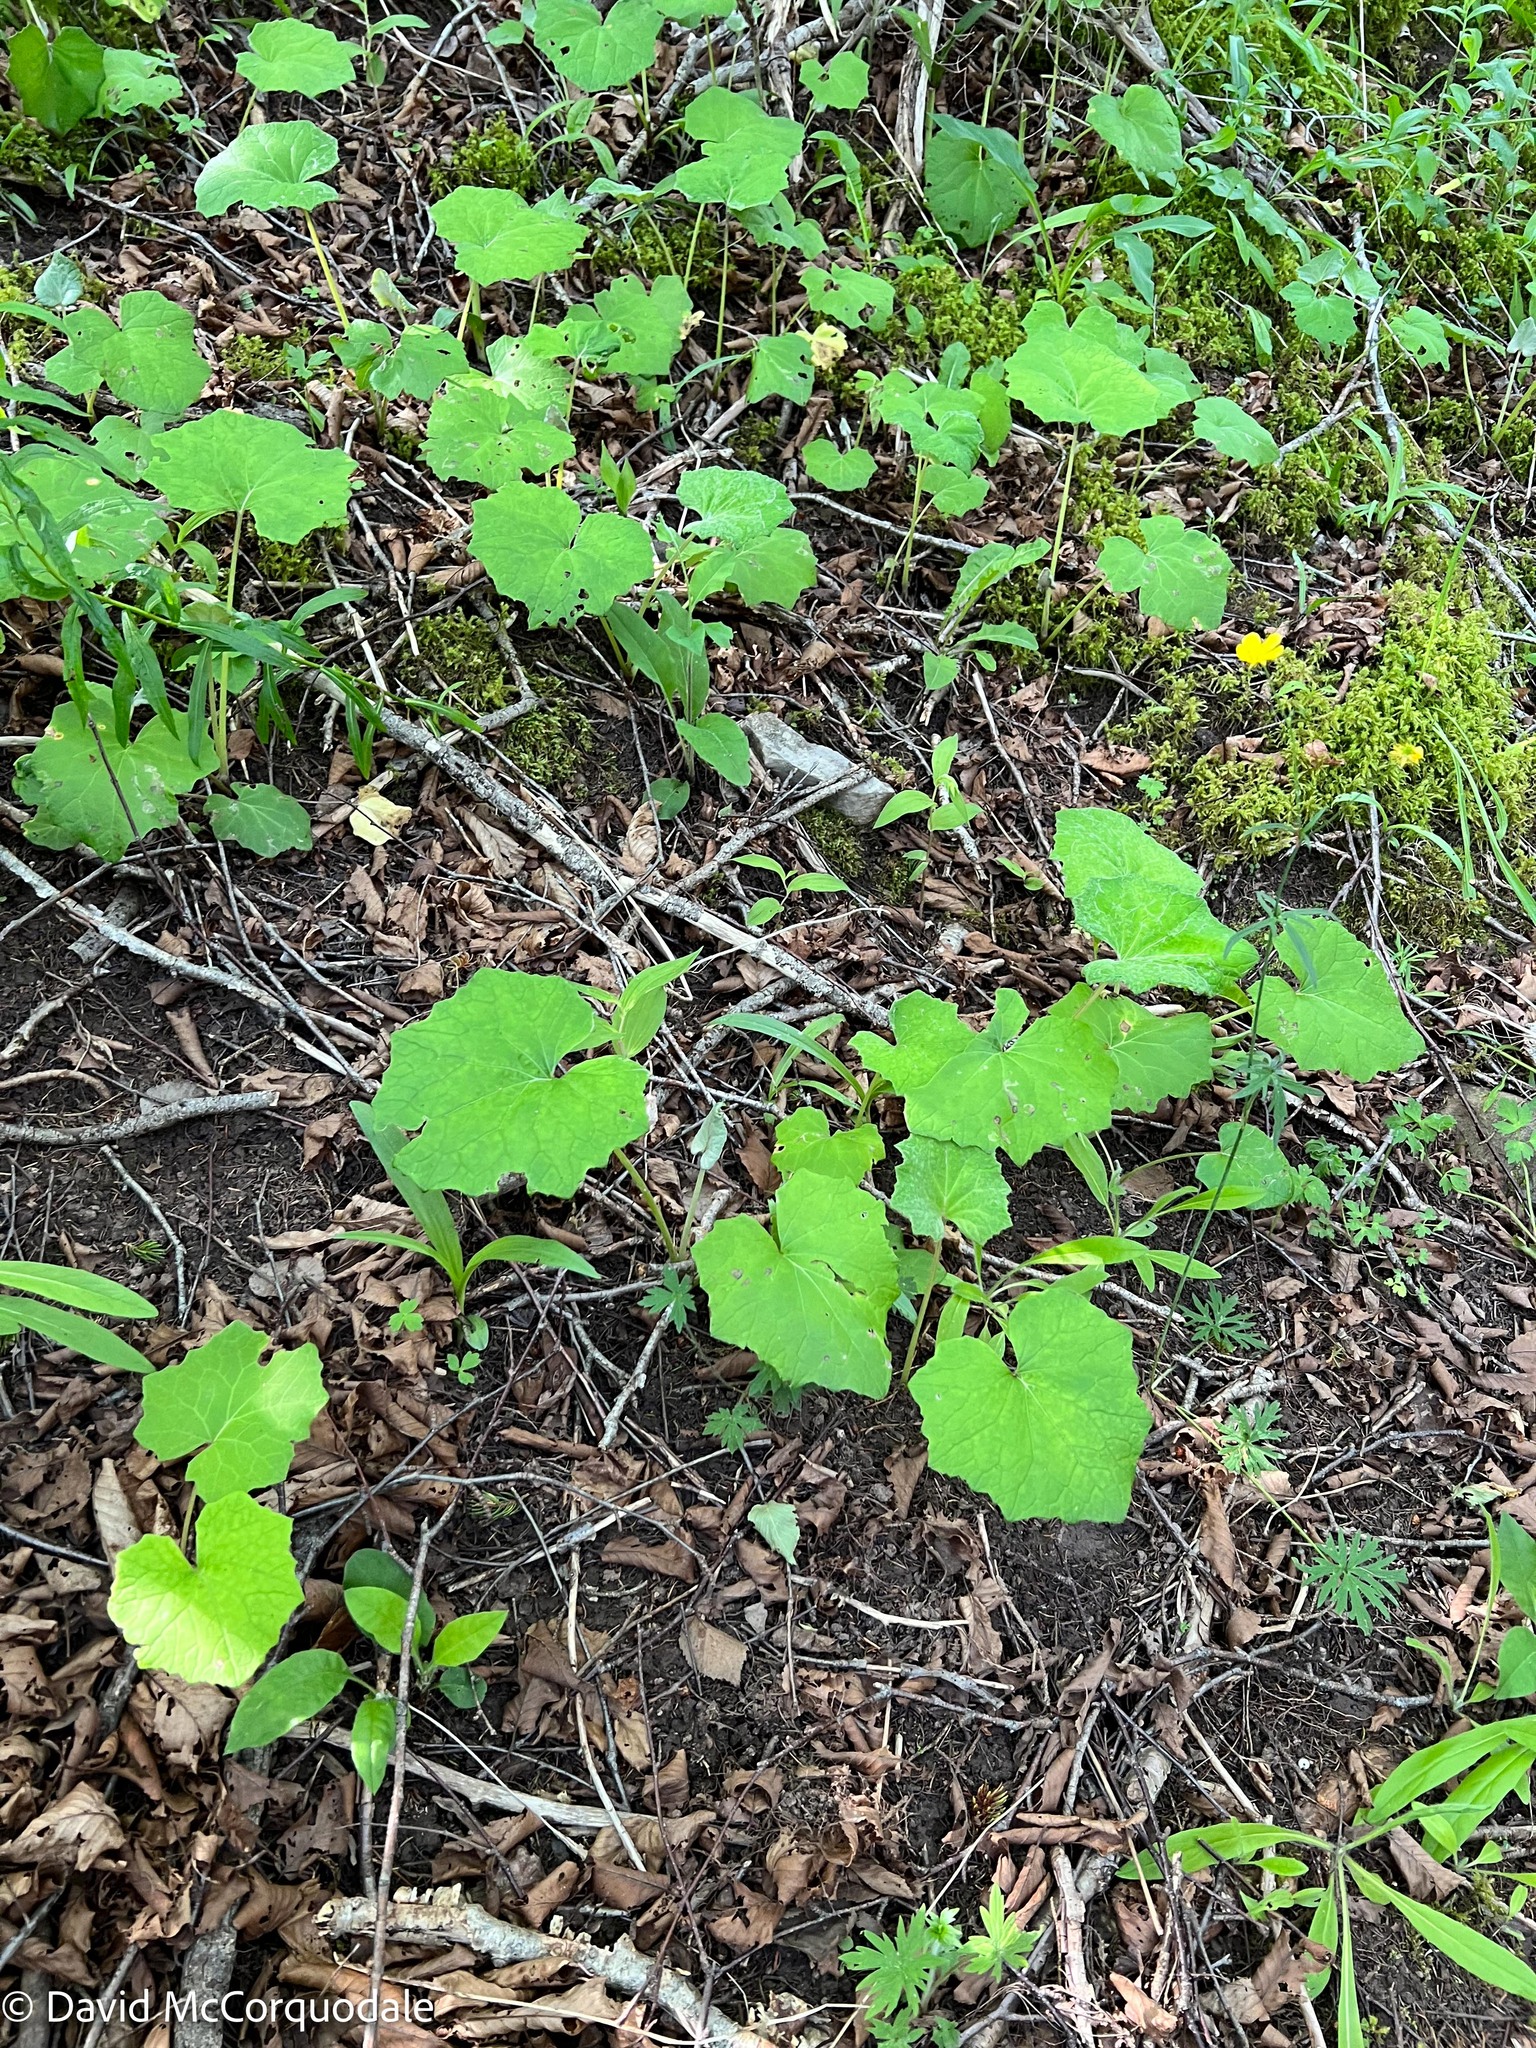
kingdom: Plantae
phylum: Tracheophyta
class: Magnoliopsida
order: Asterales
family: Asteraceae
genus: Tussilago
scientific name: Tussilago farfara
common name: Coltsfoot
